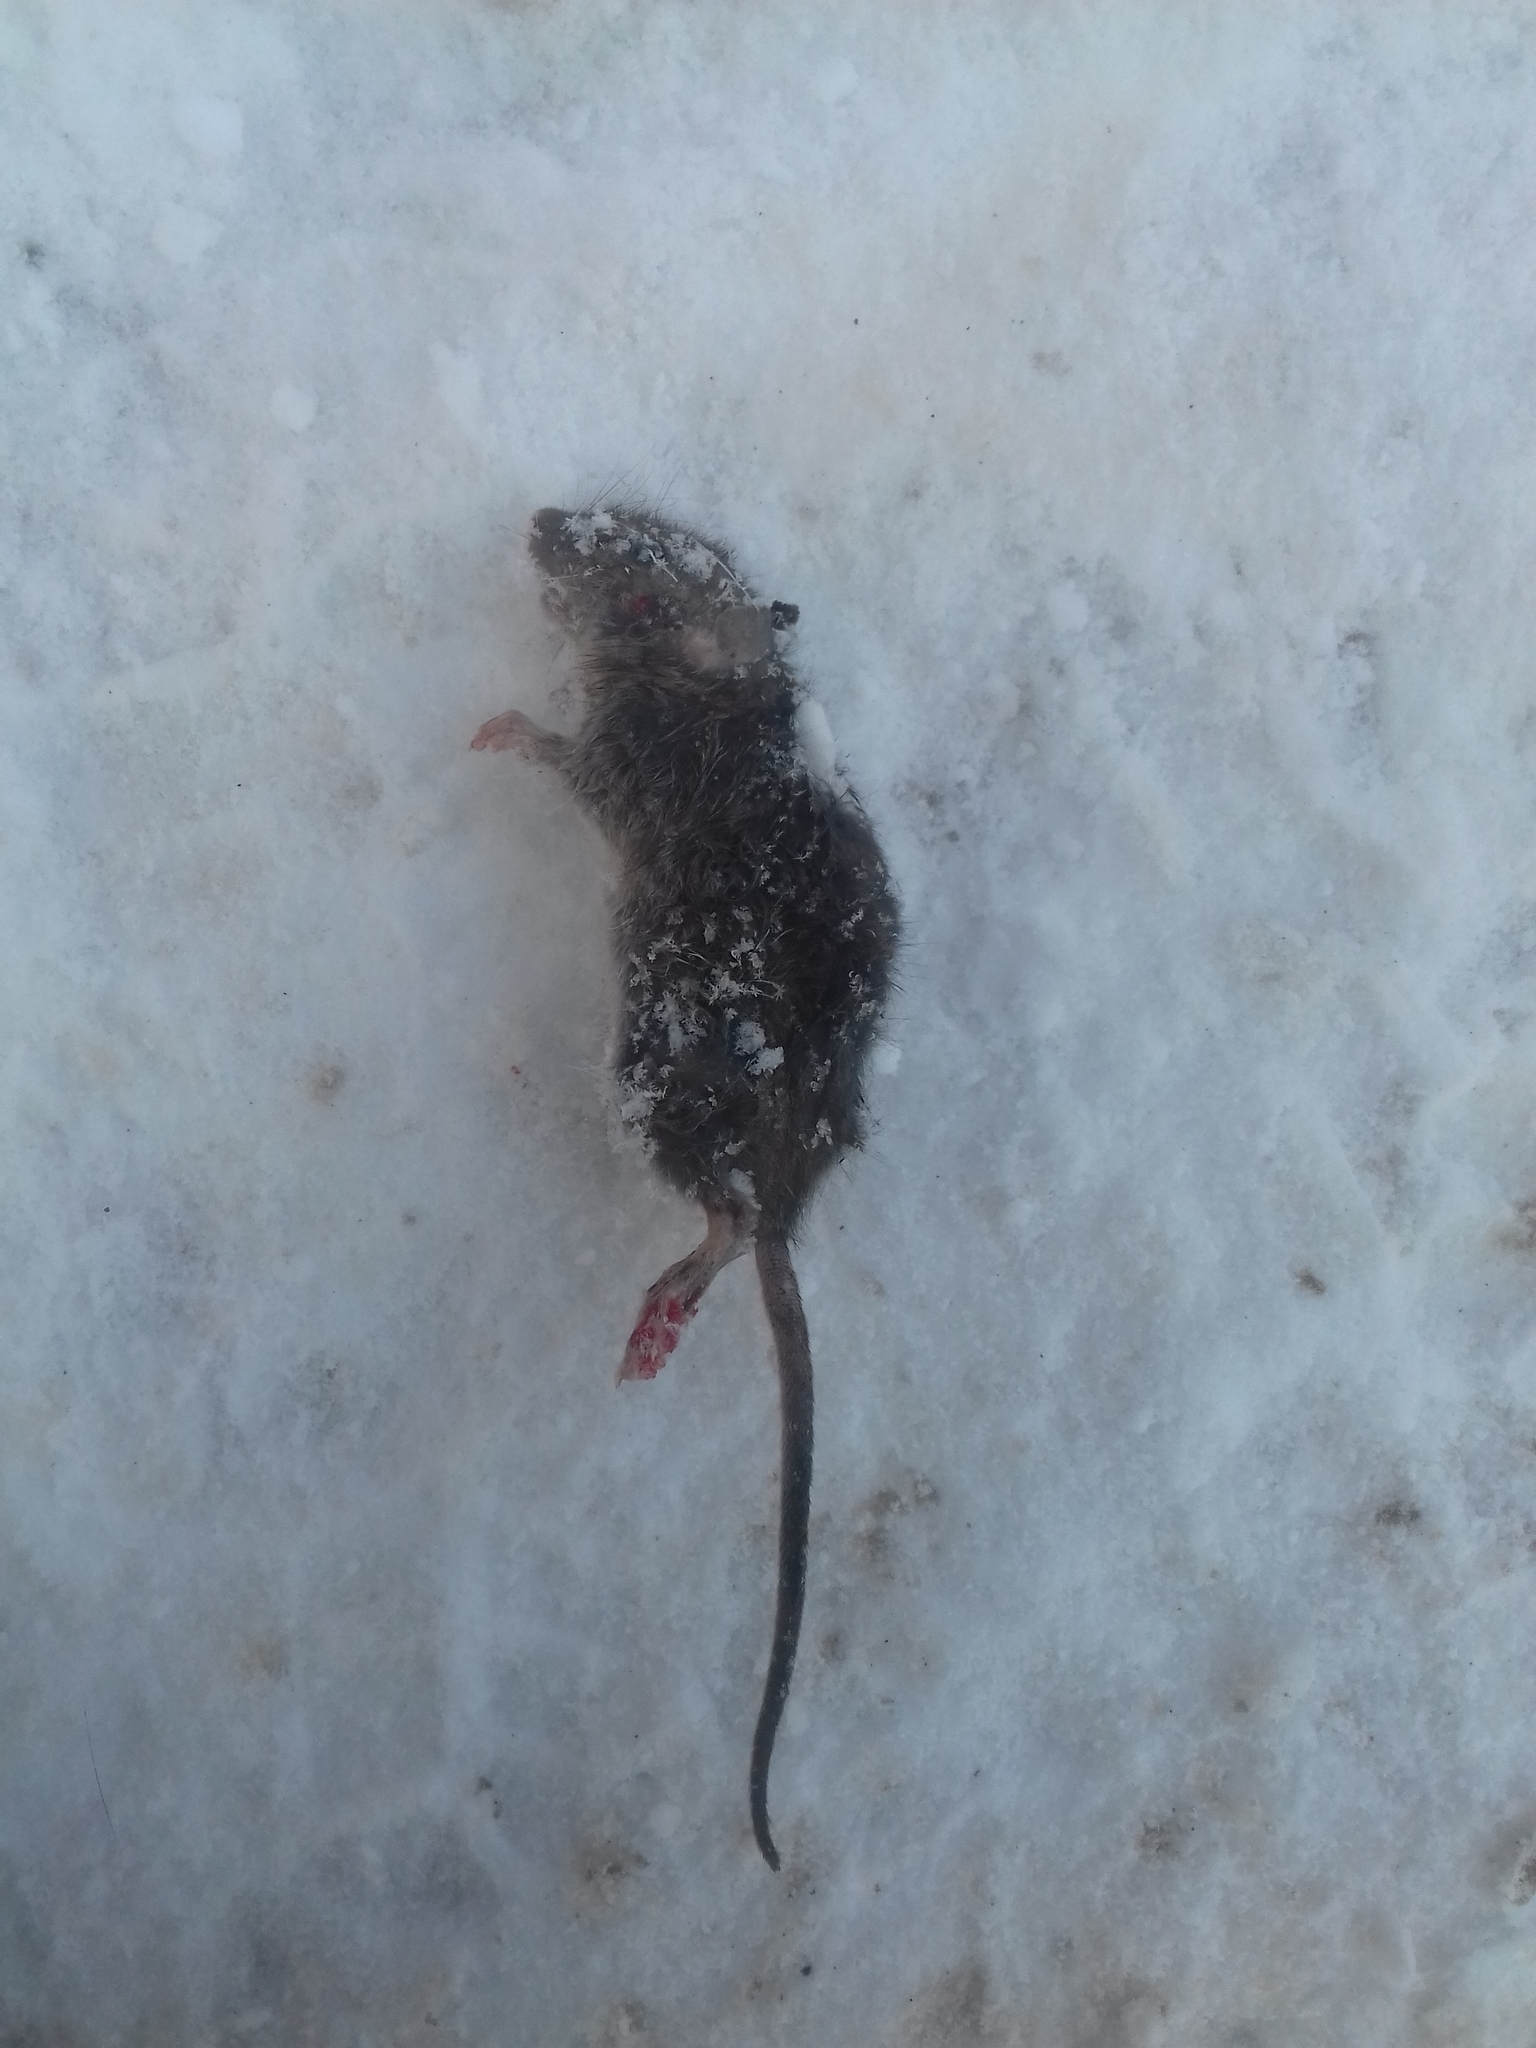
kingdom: Animalia
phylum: Chordata
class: Mammalia
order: Rodentia
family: Muridae
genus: Mus
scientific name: Mus musculus
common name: House mouse
